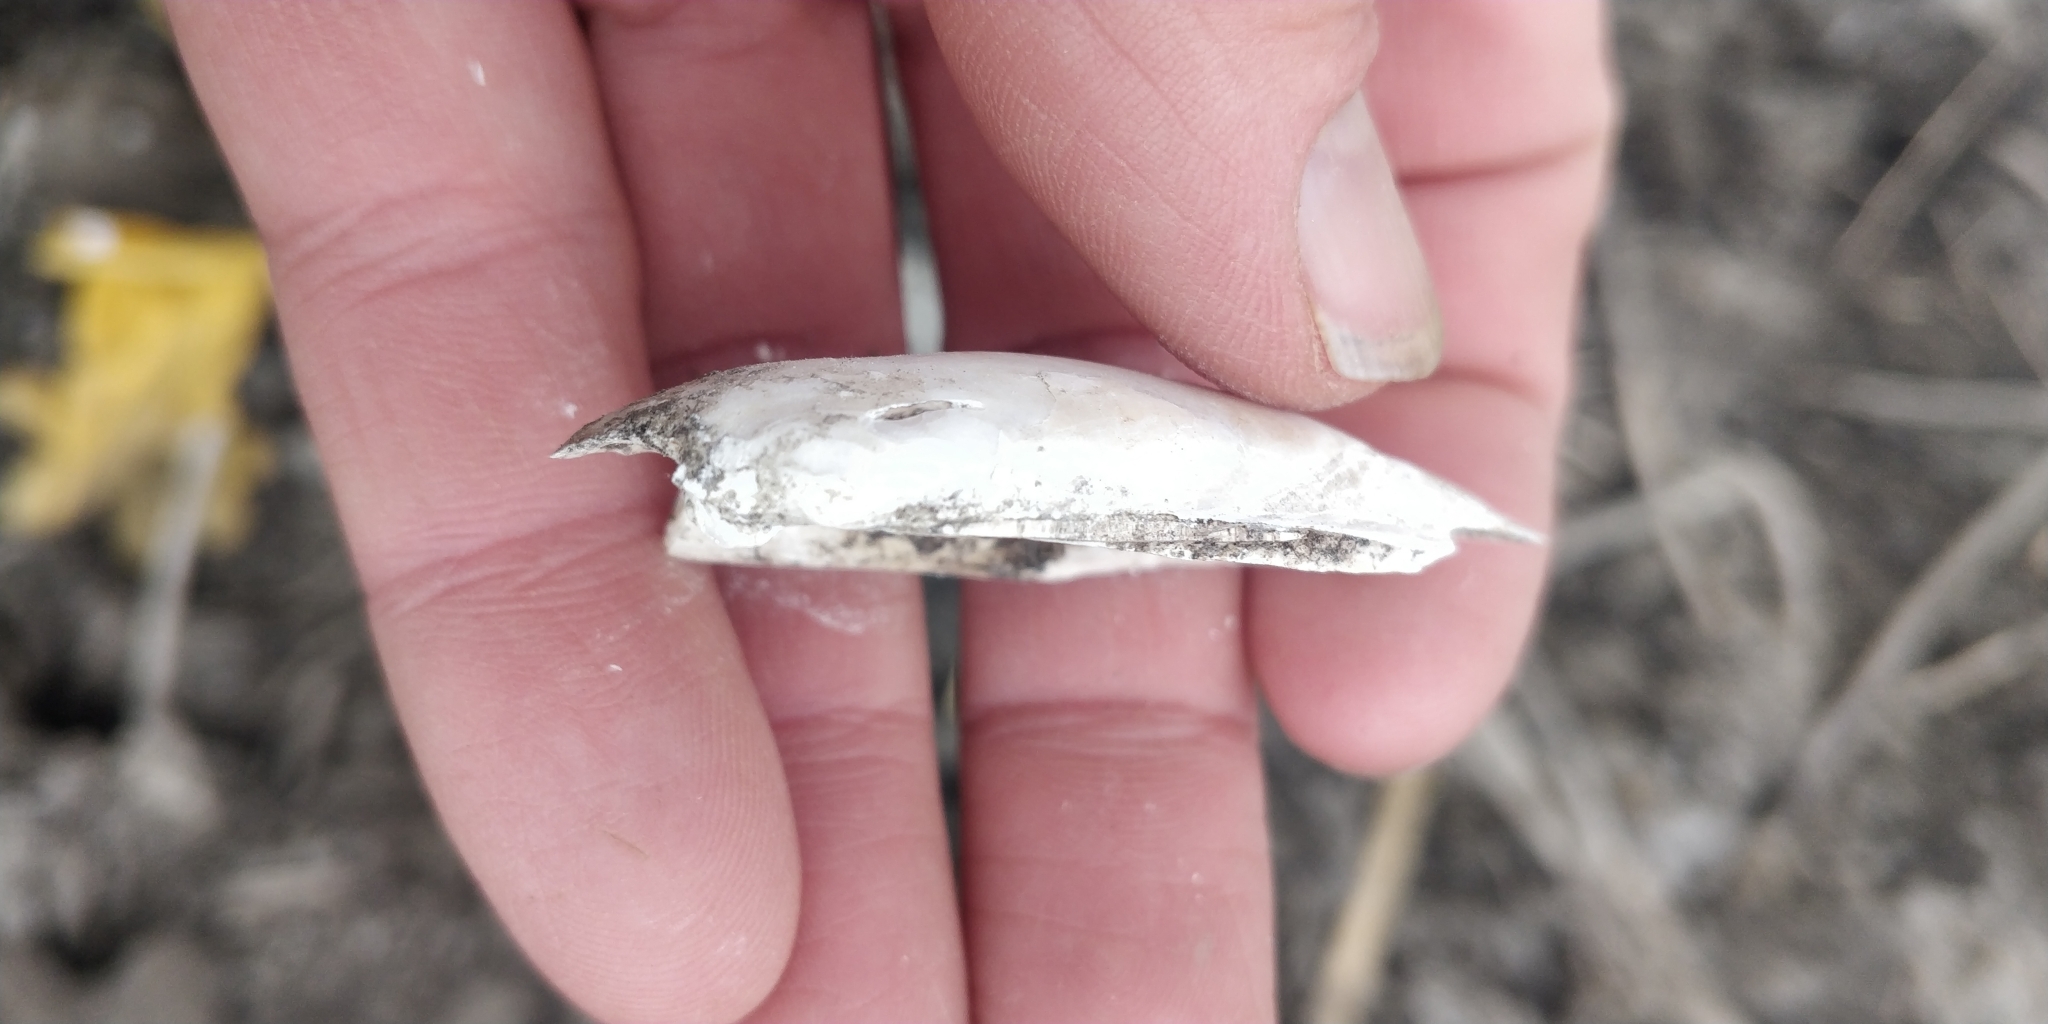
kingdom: Animalia
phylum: Mollusca
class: Bivalvia
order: Unionida
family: Unionidae
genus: Lampsilis
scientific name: Lampsilis teres
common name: Yellow sandshell
